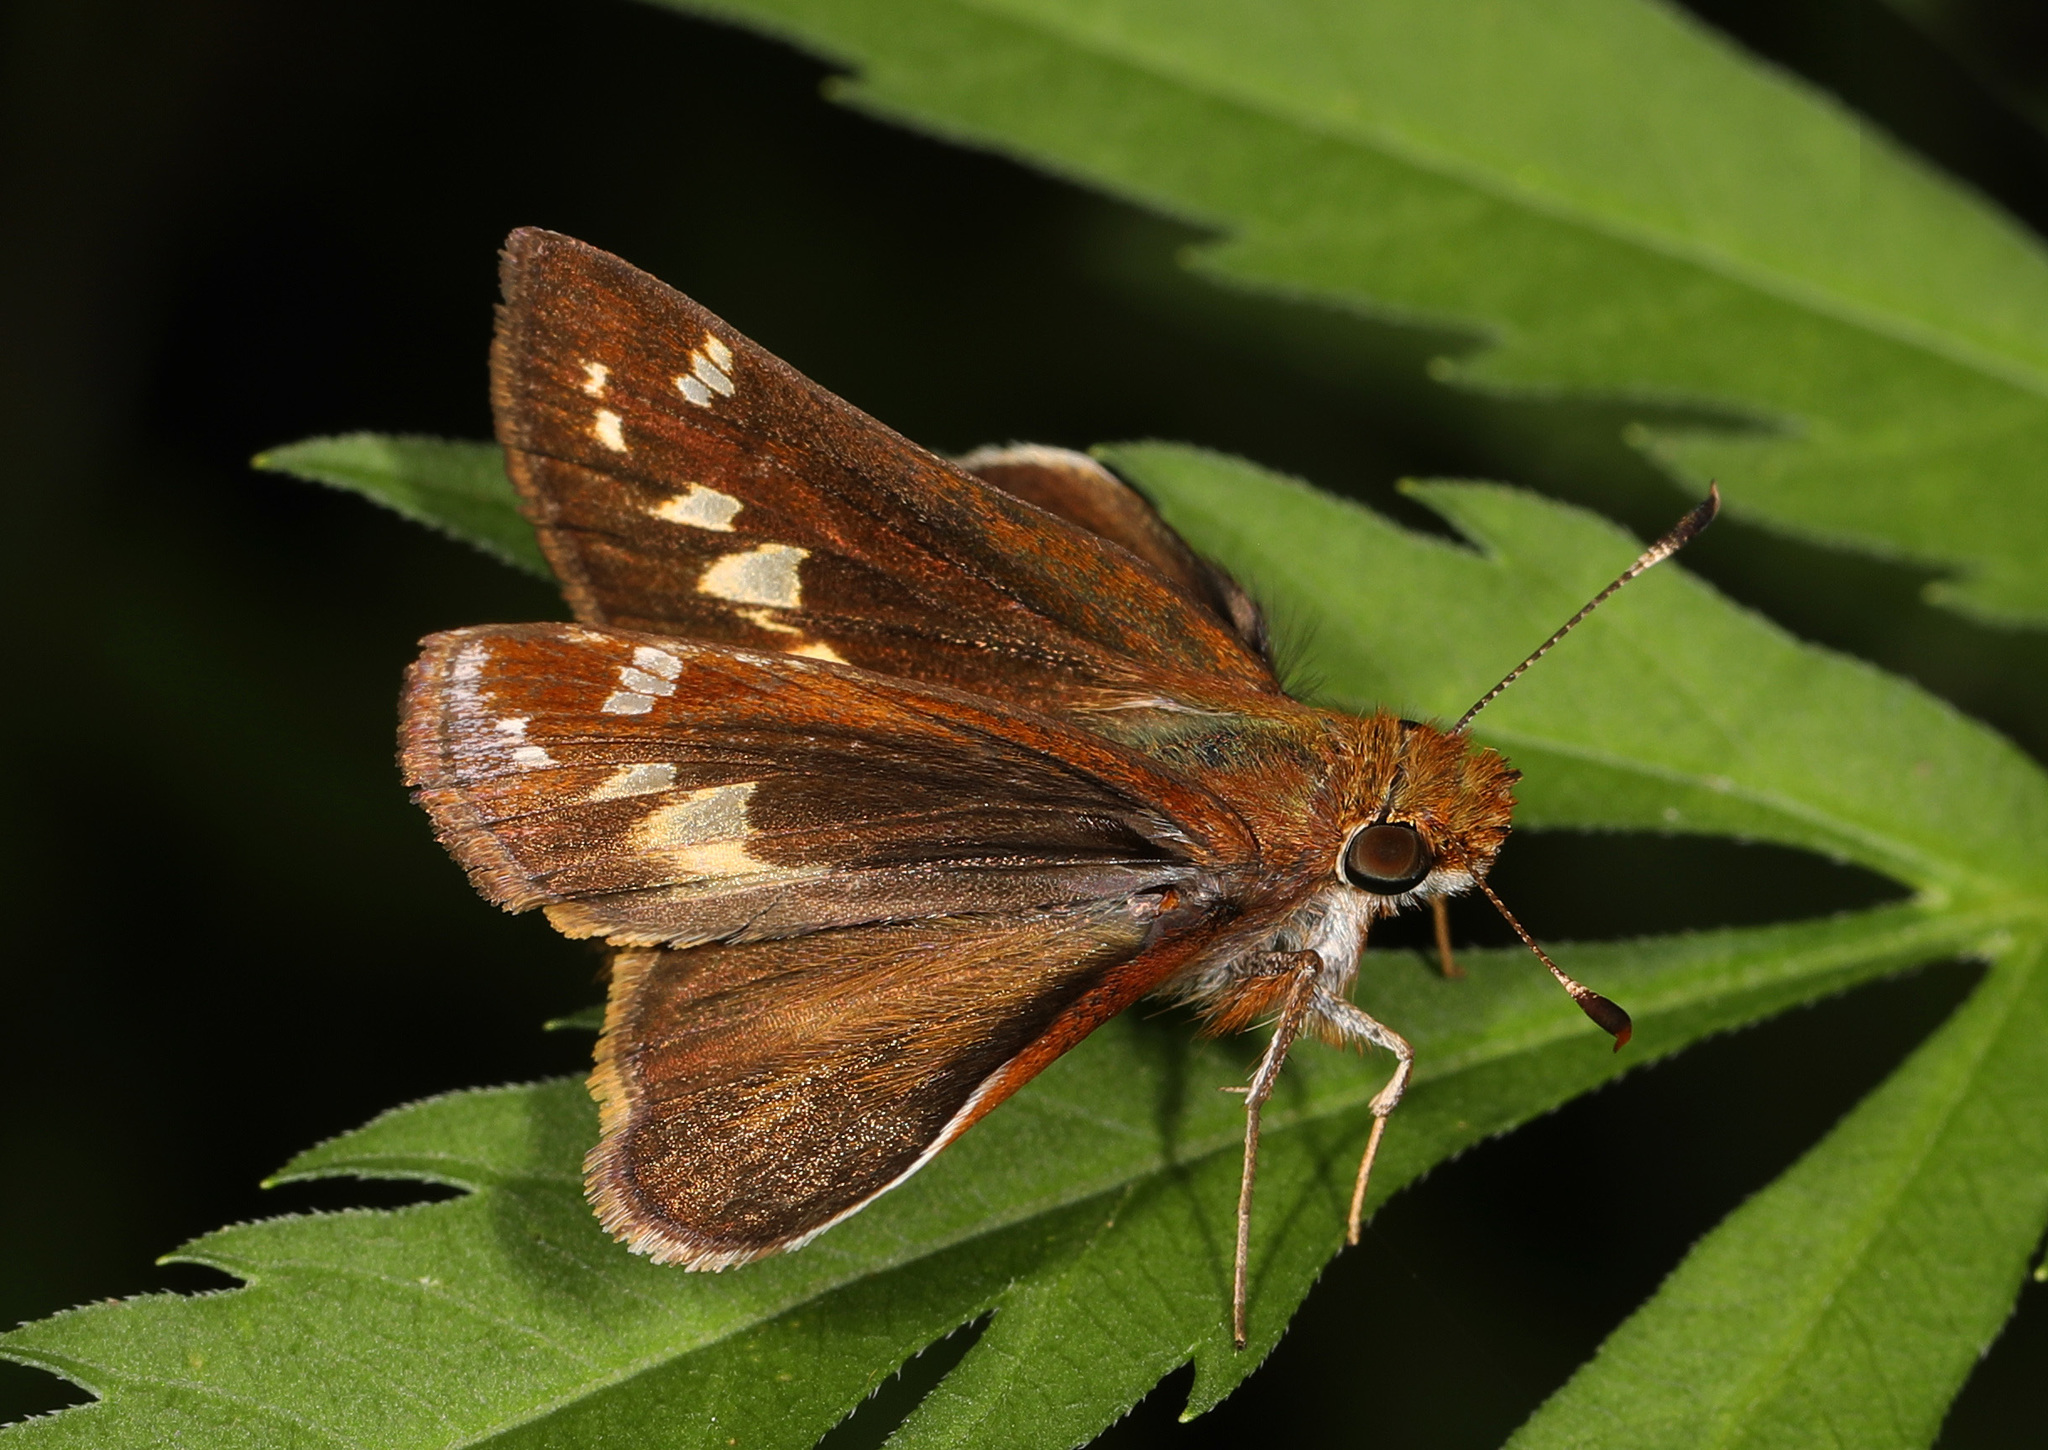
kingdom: Animalia
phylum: Arthropoda
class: Insecta
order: Lepidoptera
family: Hesperiidae
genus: Lon
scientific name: Lon zabulon
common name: Zabulon skipper
